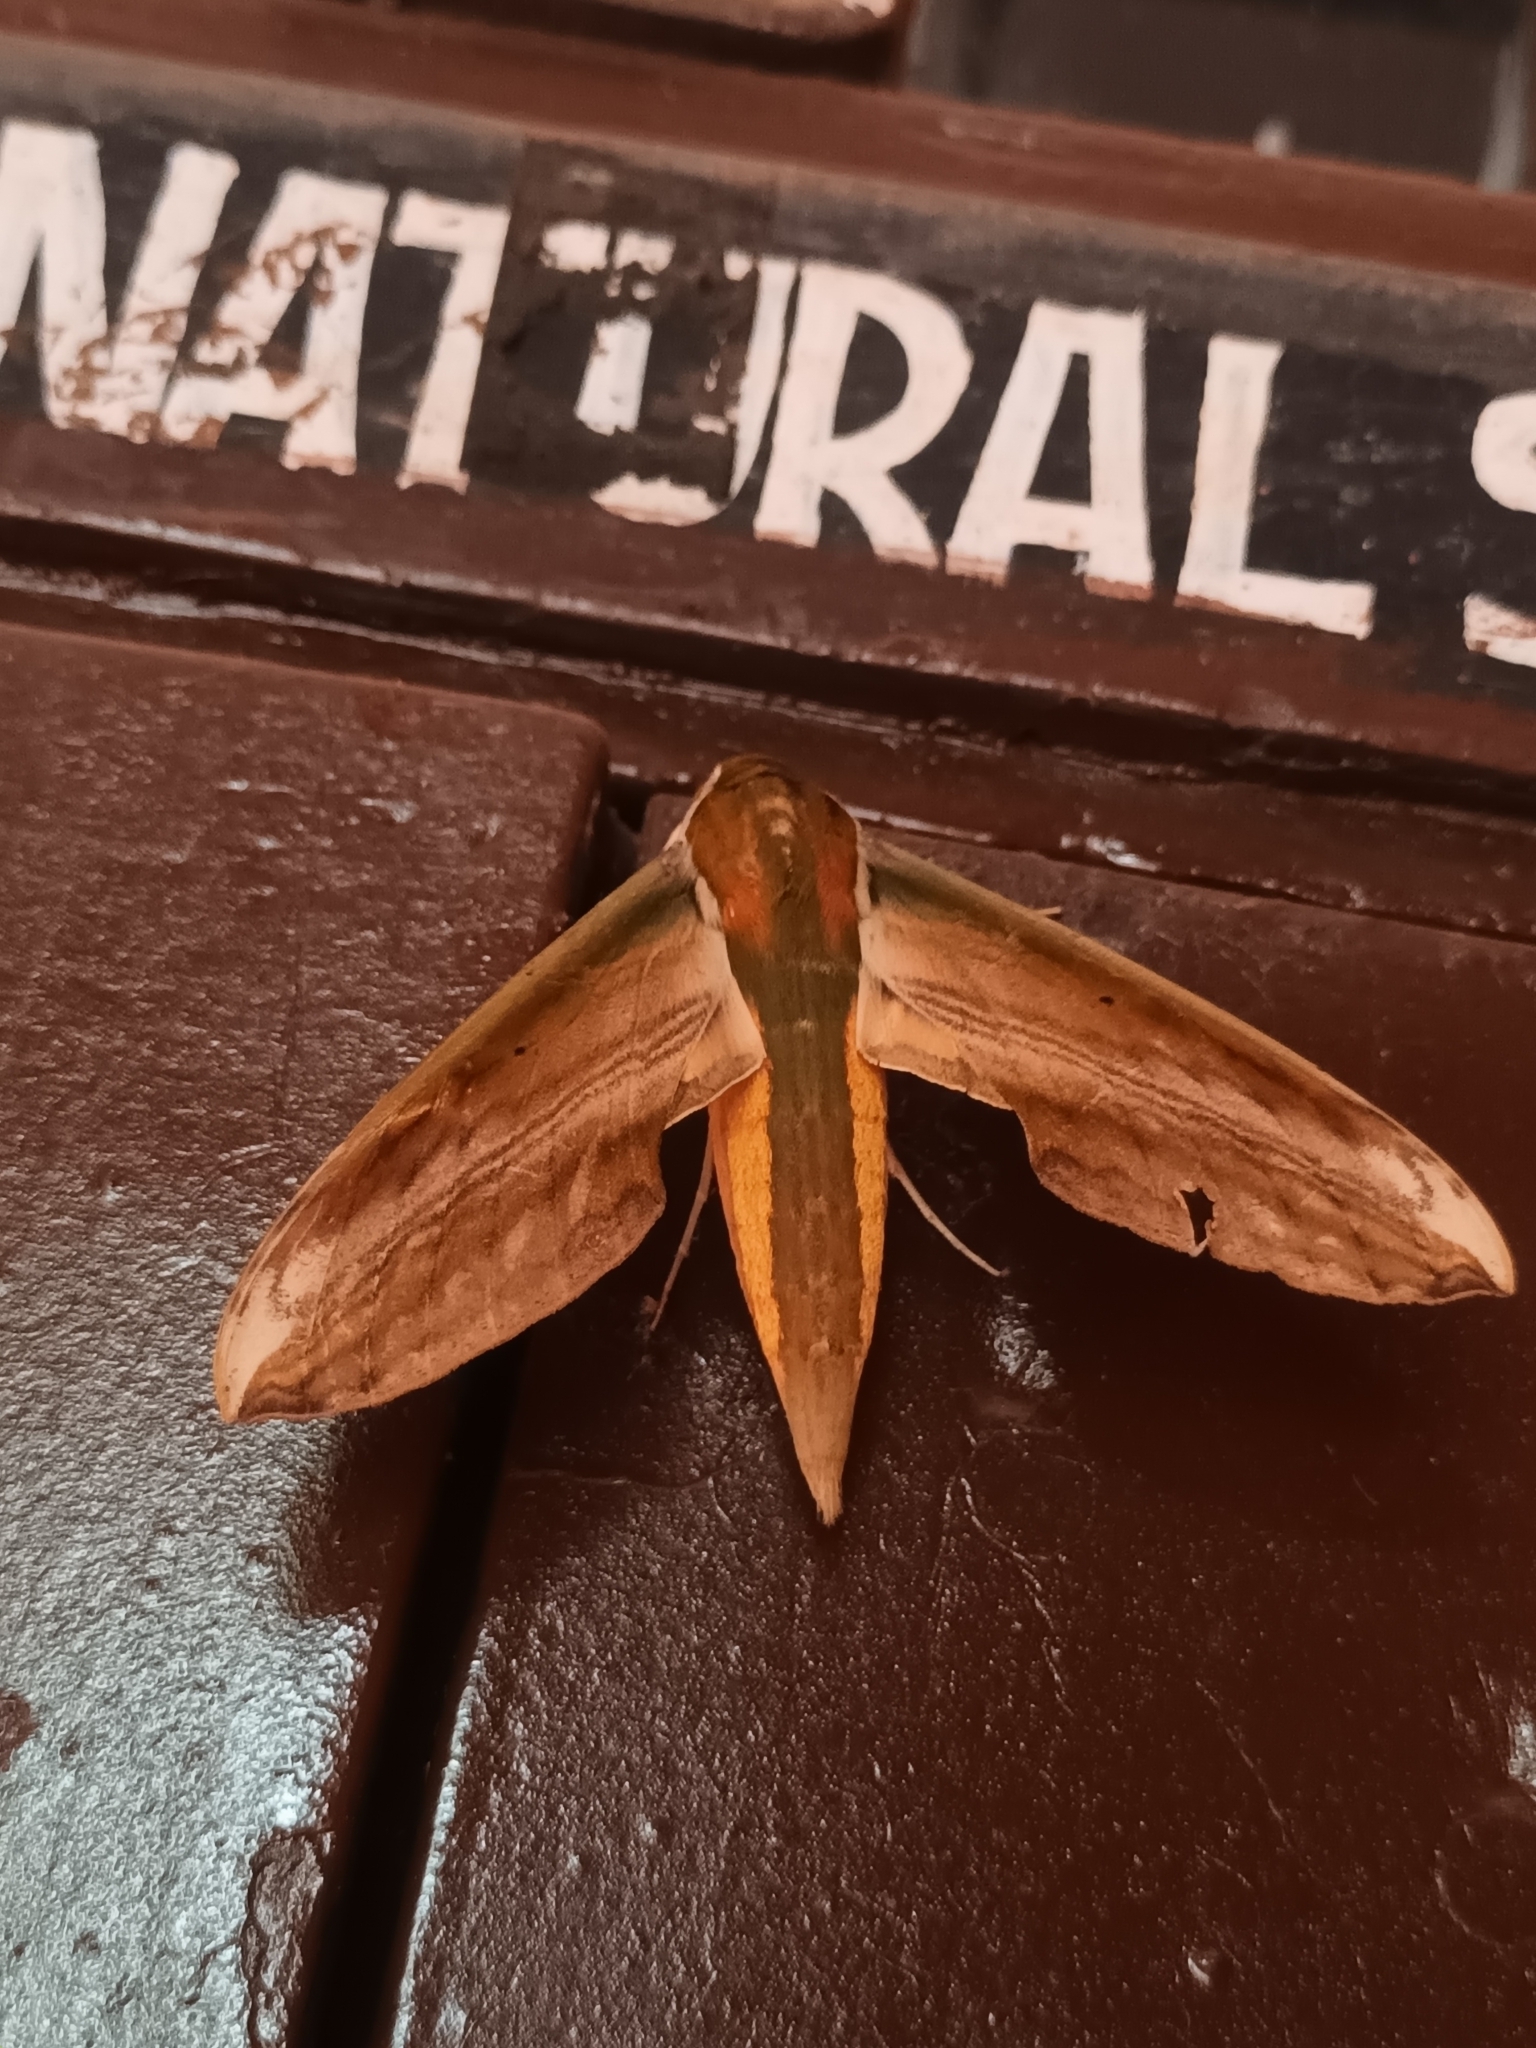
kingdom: Animalia
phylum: Arthropoda
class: Insecta
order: Lepidoptera
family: Sphingidae
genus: Theretra
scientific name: Theretra nessus
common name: Yam hawk moth
